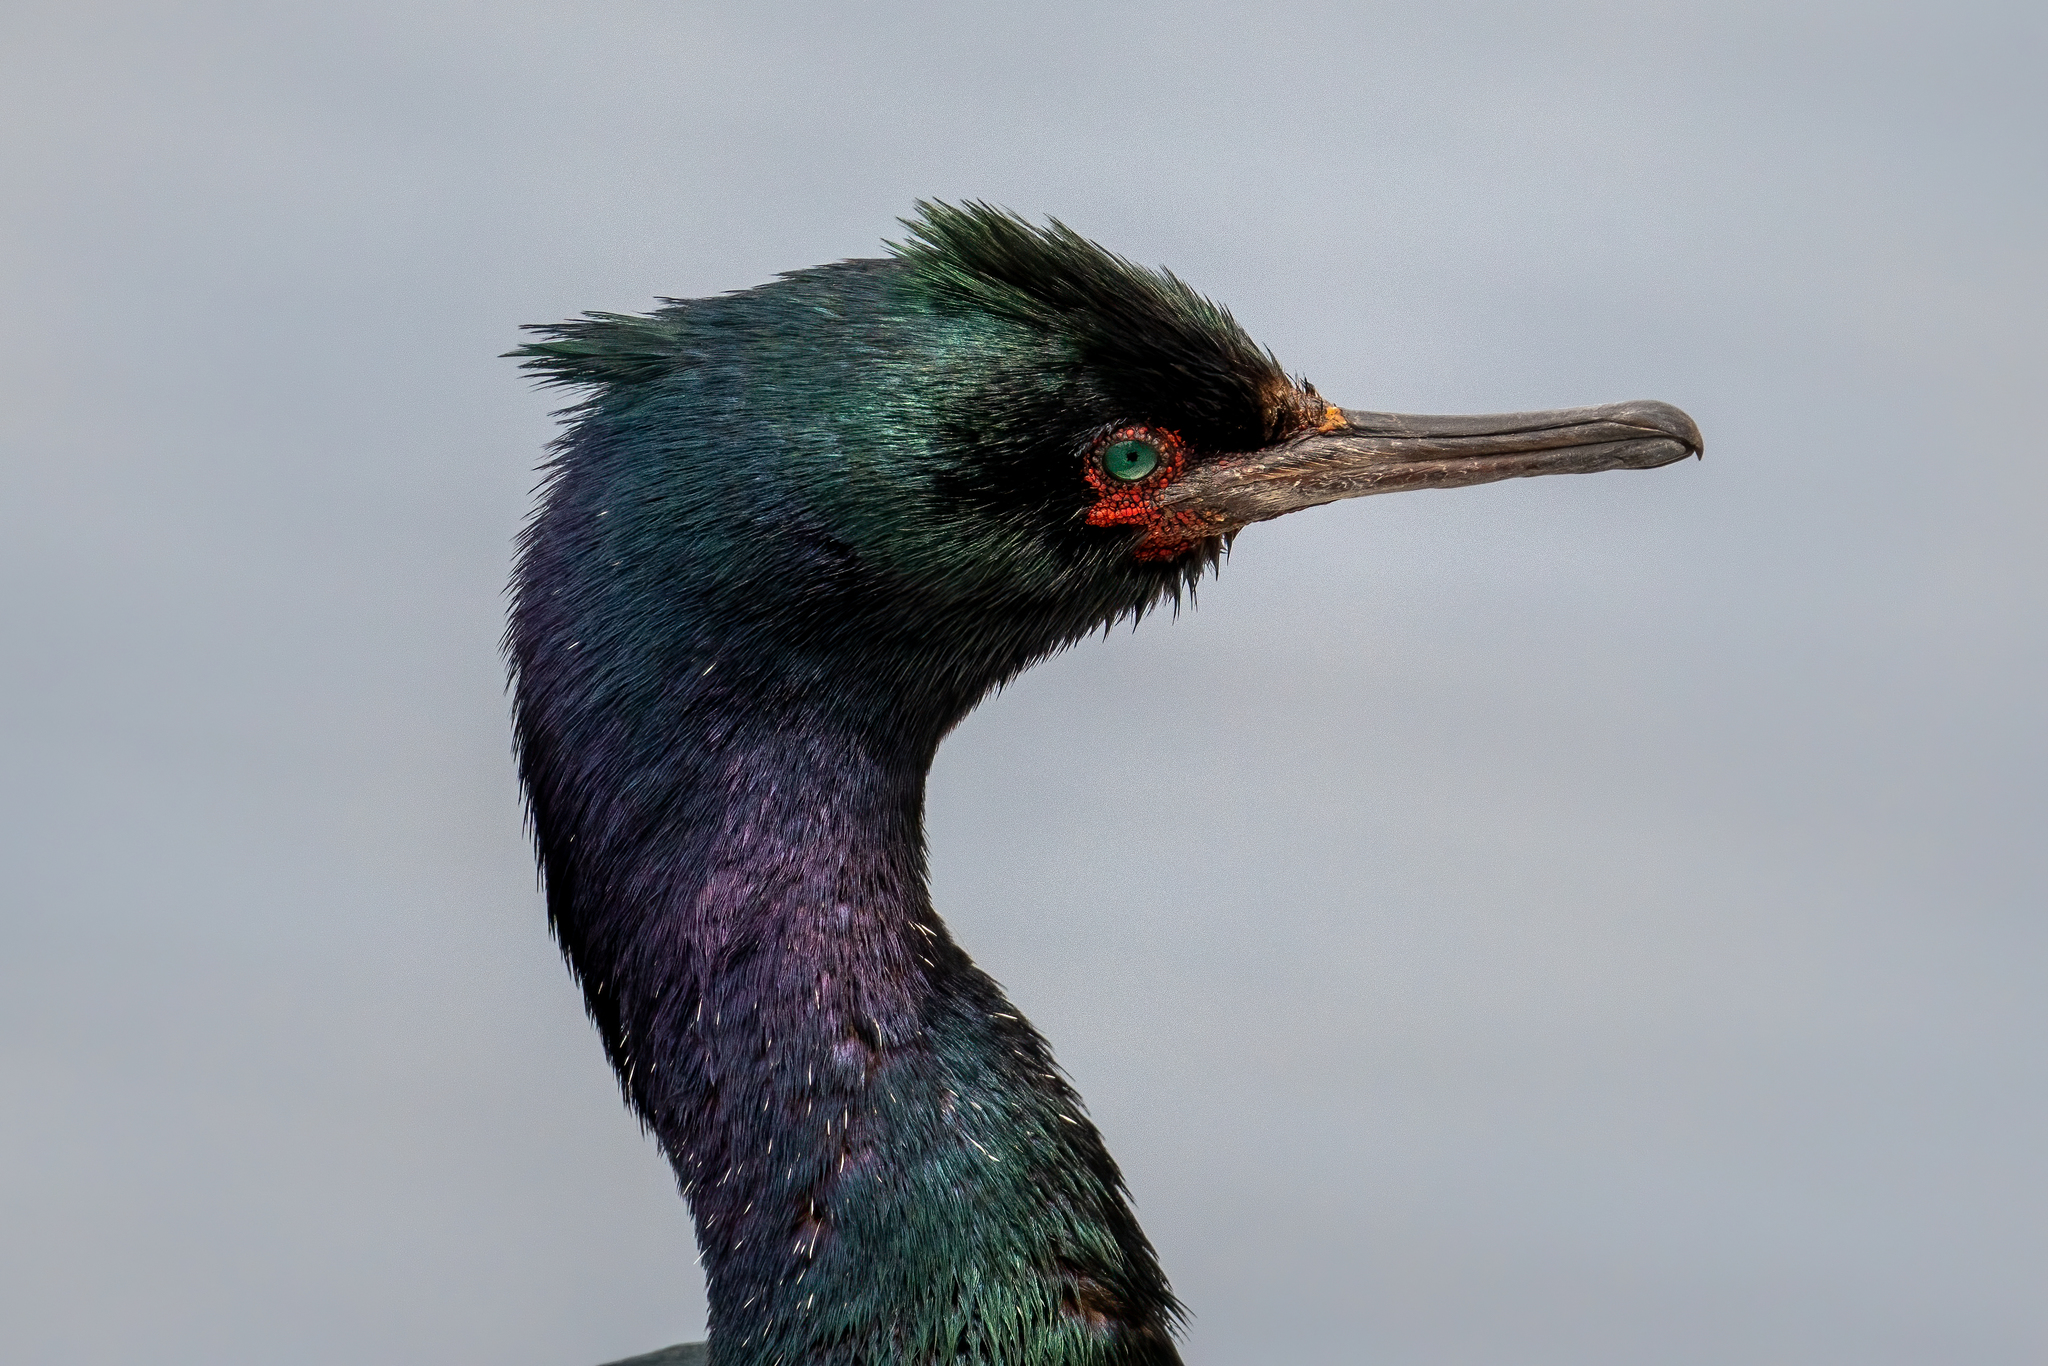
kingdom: Animalia
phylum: Chordata
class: Aves
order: Suliformes
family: Phalacrocoracidae
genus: Phalacrocorax
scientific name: Phalacrocorax pelagicus
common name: Pelagic cormorant
